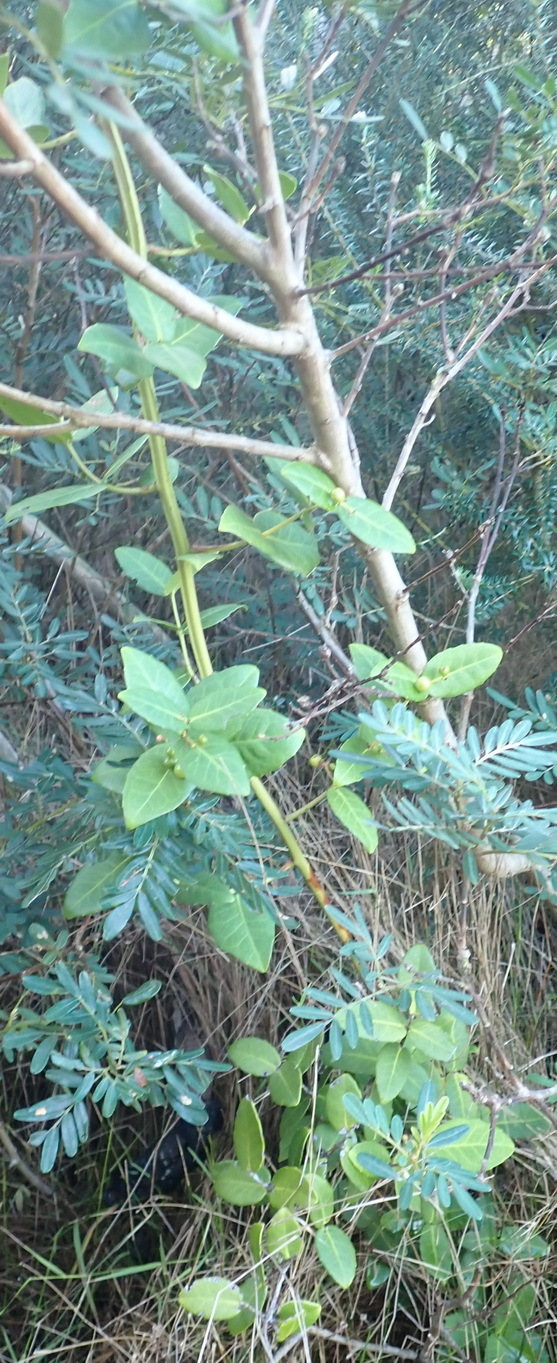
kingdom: Plantae
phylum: Tracheophyta
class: Magnoliopsida
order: Celastrales
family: Celastraceae
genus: Lauridia
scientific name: Lauridia tetragona
